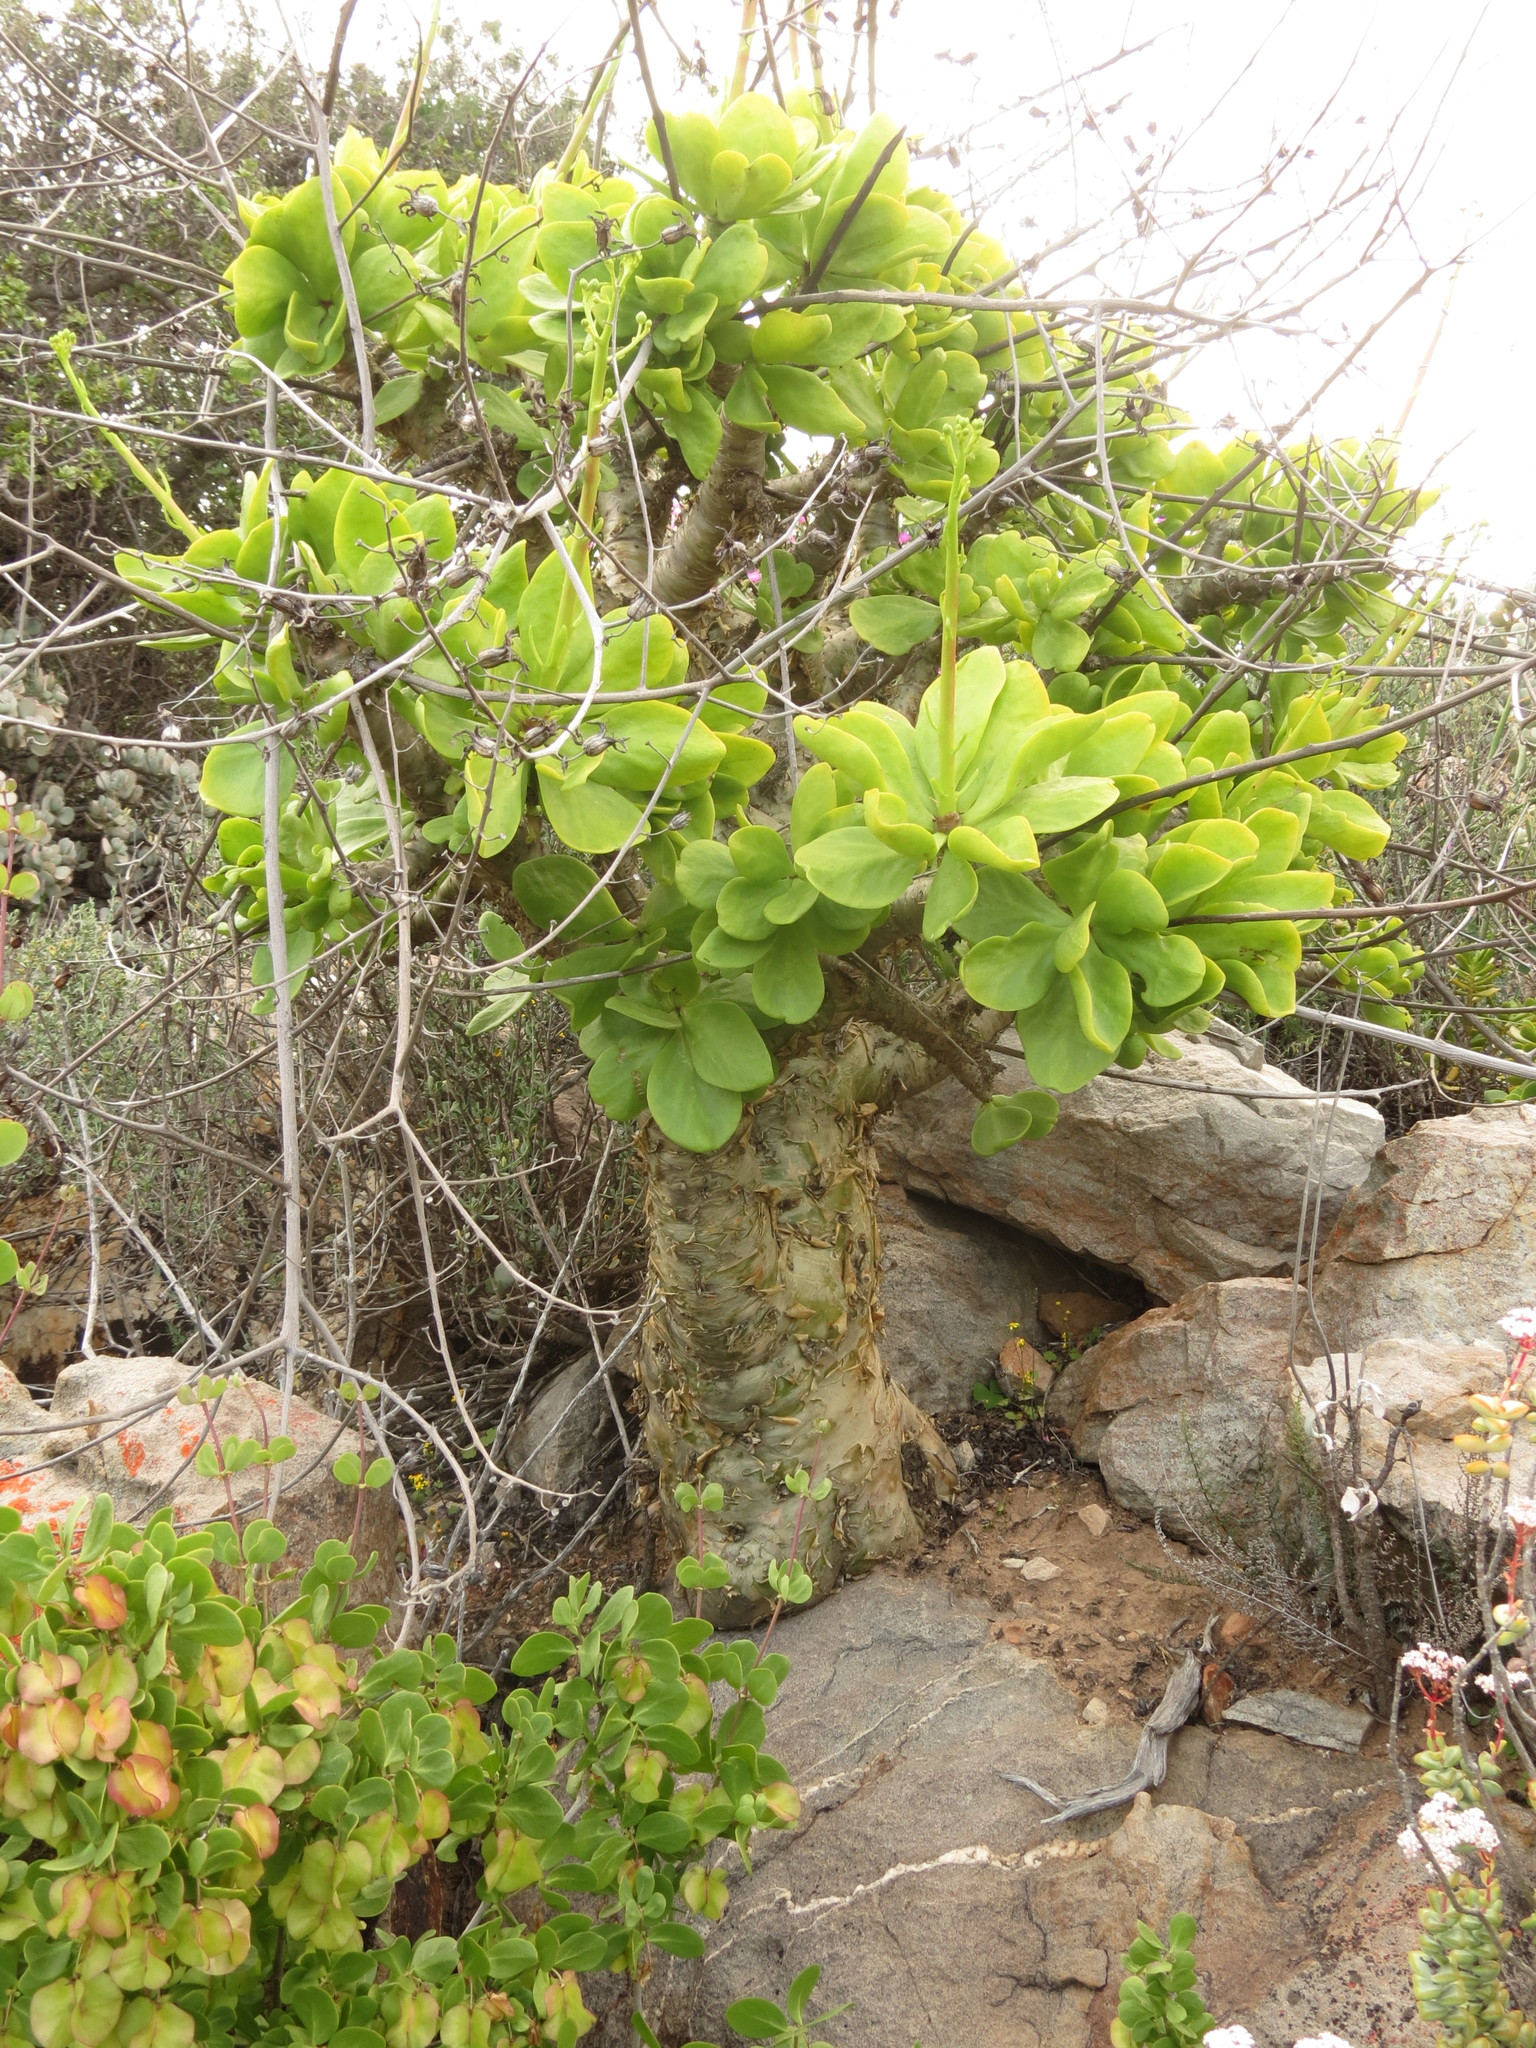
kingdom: Plantae
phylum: Tracheophyta
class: Magnoliopsida
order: Saxifragales
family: Crassulaceae
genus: Tylecodon
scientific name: Tylecodon paniculatus
